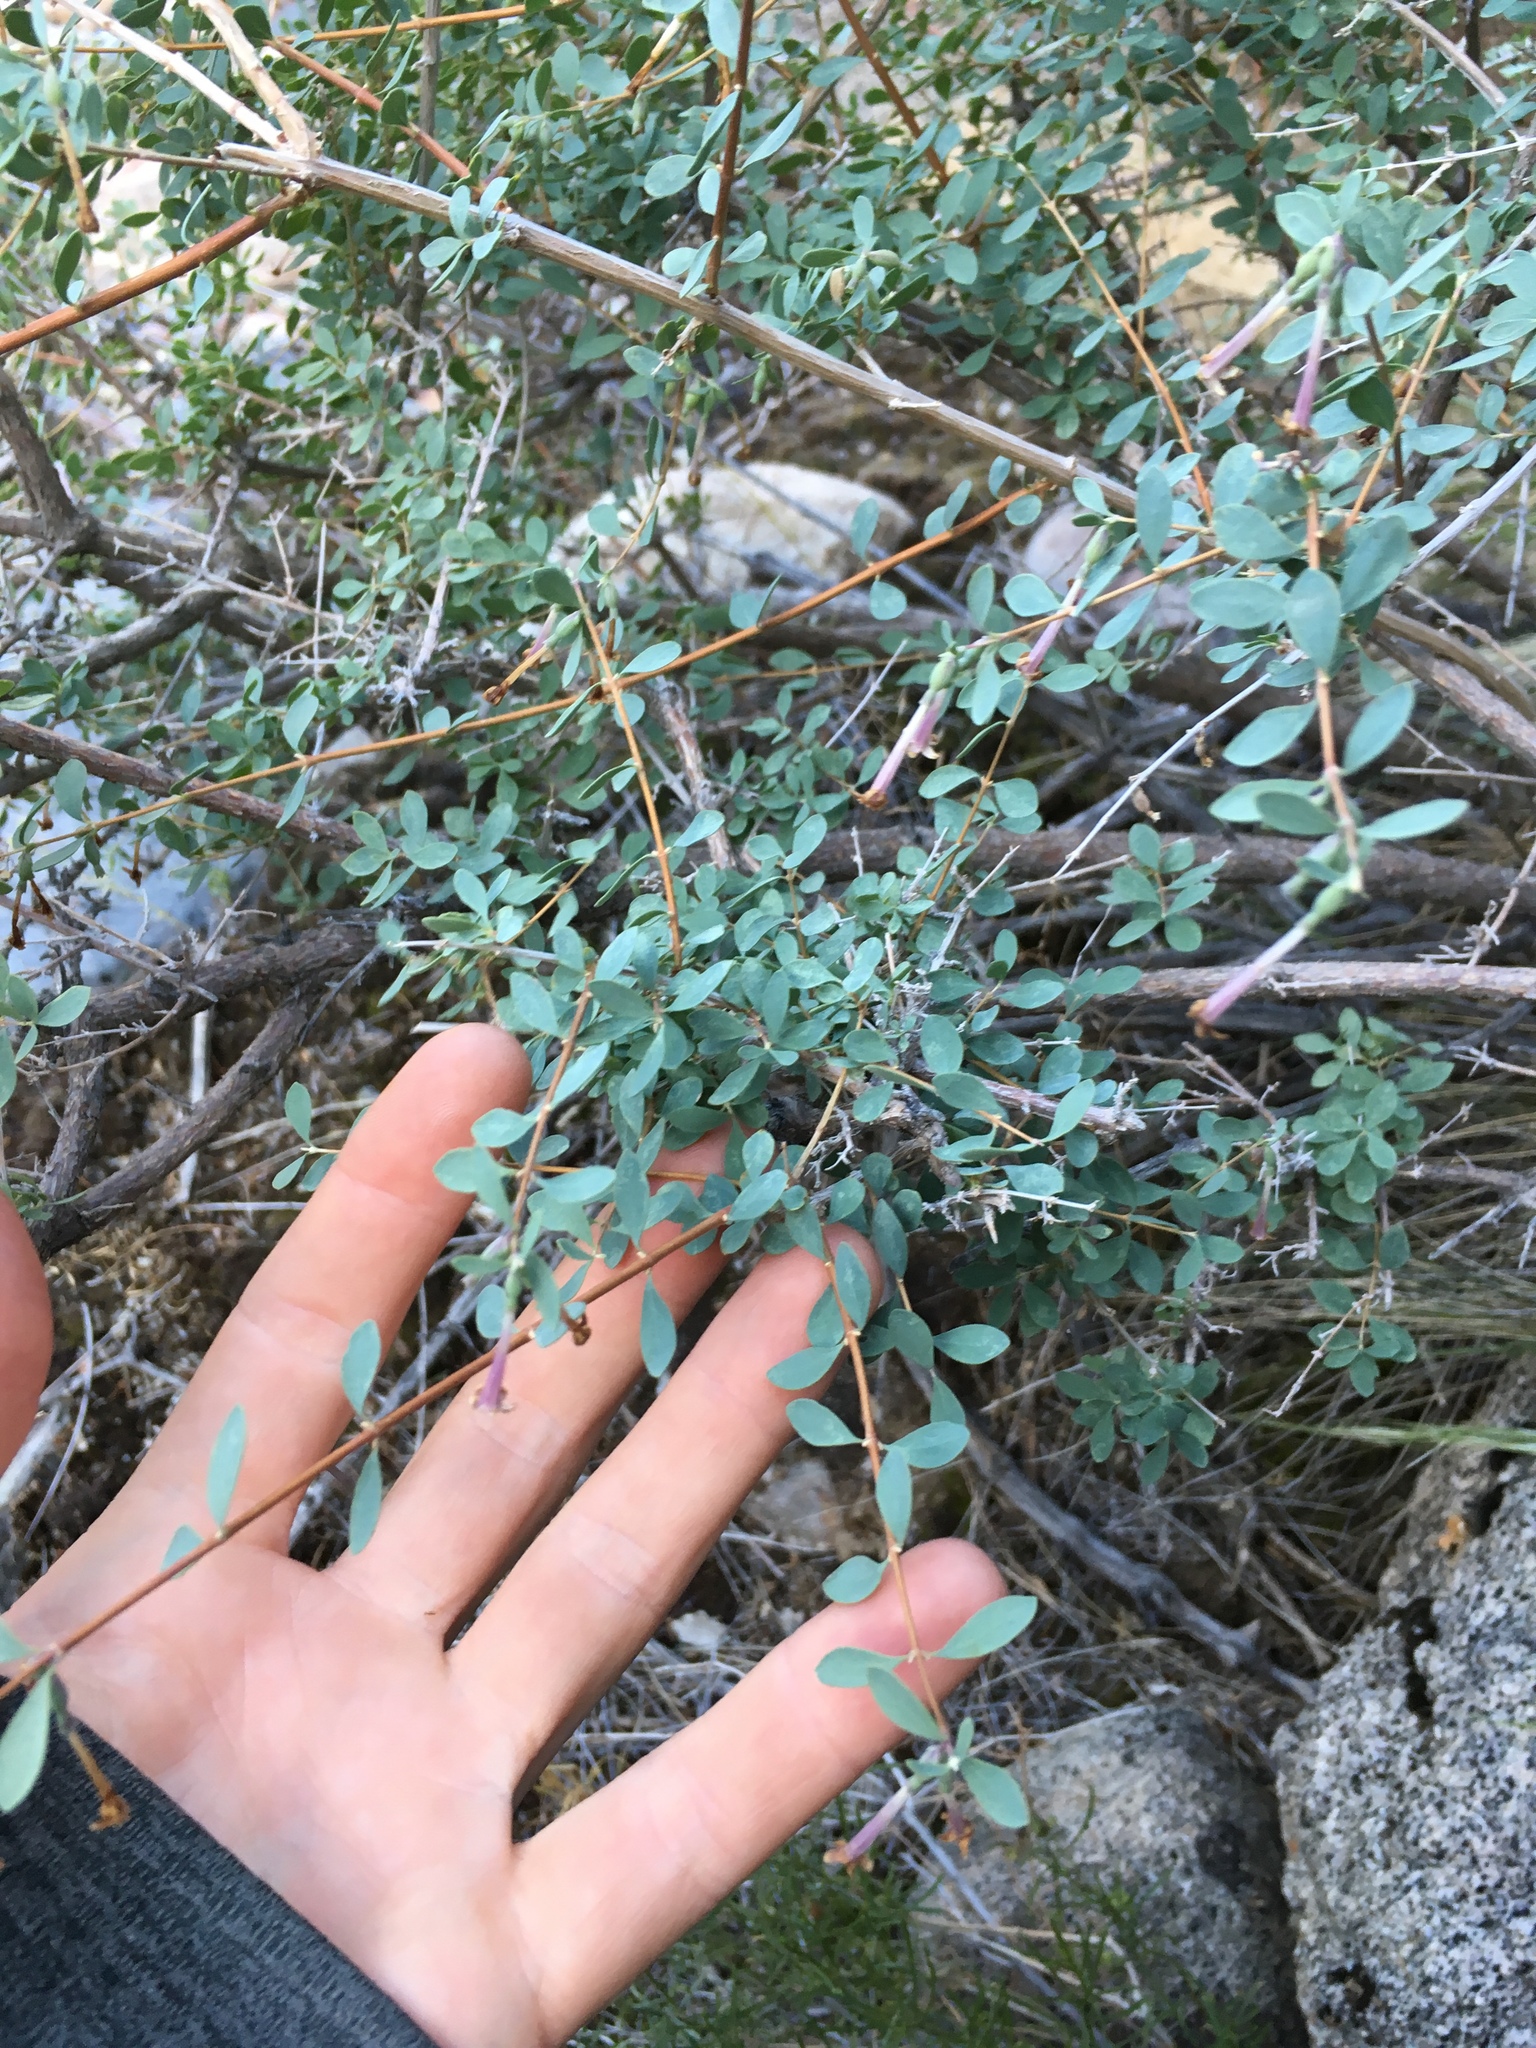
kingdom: Plantae
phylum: Tracheophyta
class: Magnoliopsida
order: Dipsacales
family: Caprifoliaceae
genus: Symphoricarpos
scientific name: Symphoricarpos longiflorus
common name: Fragrant snowberry
